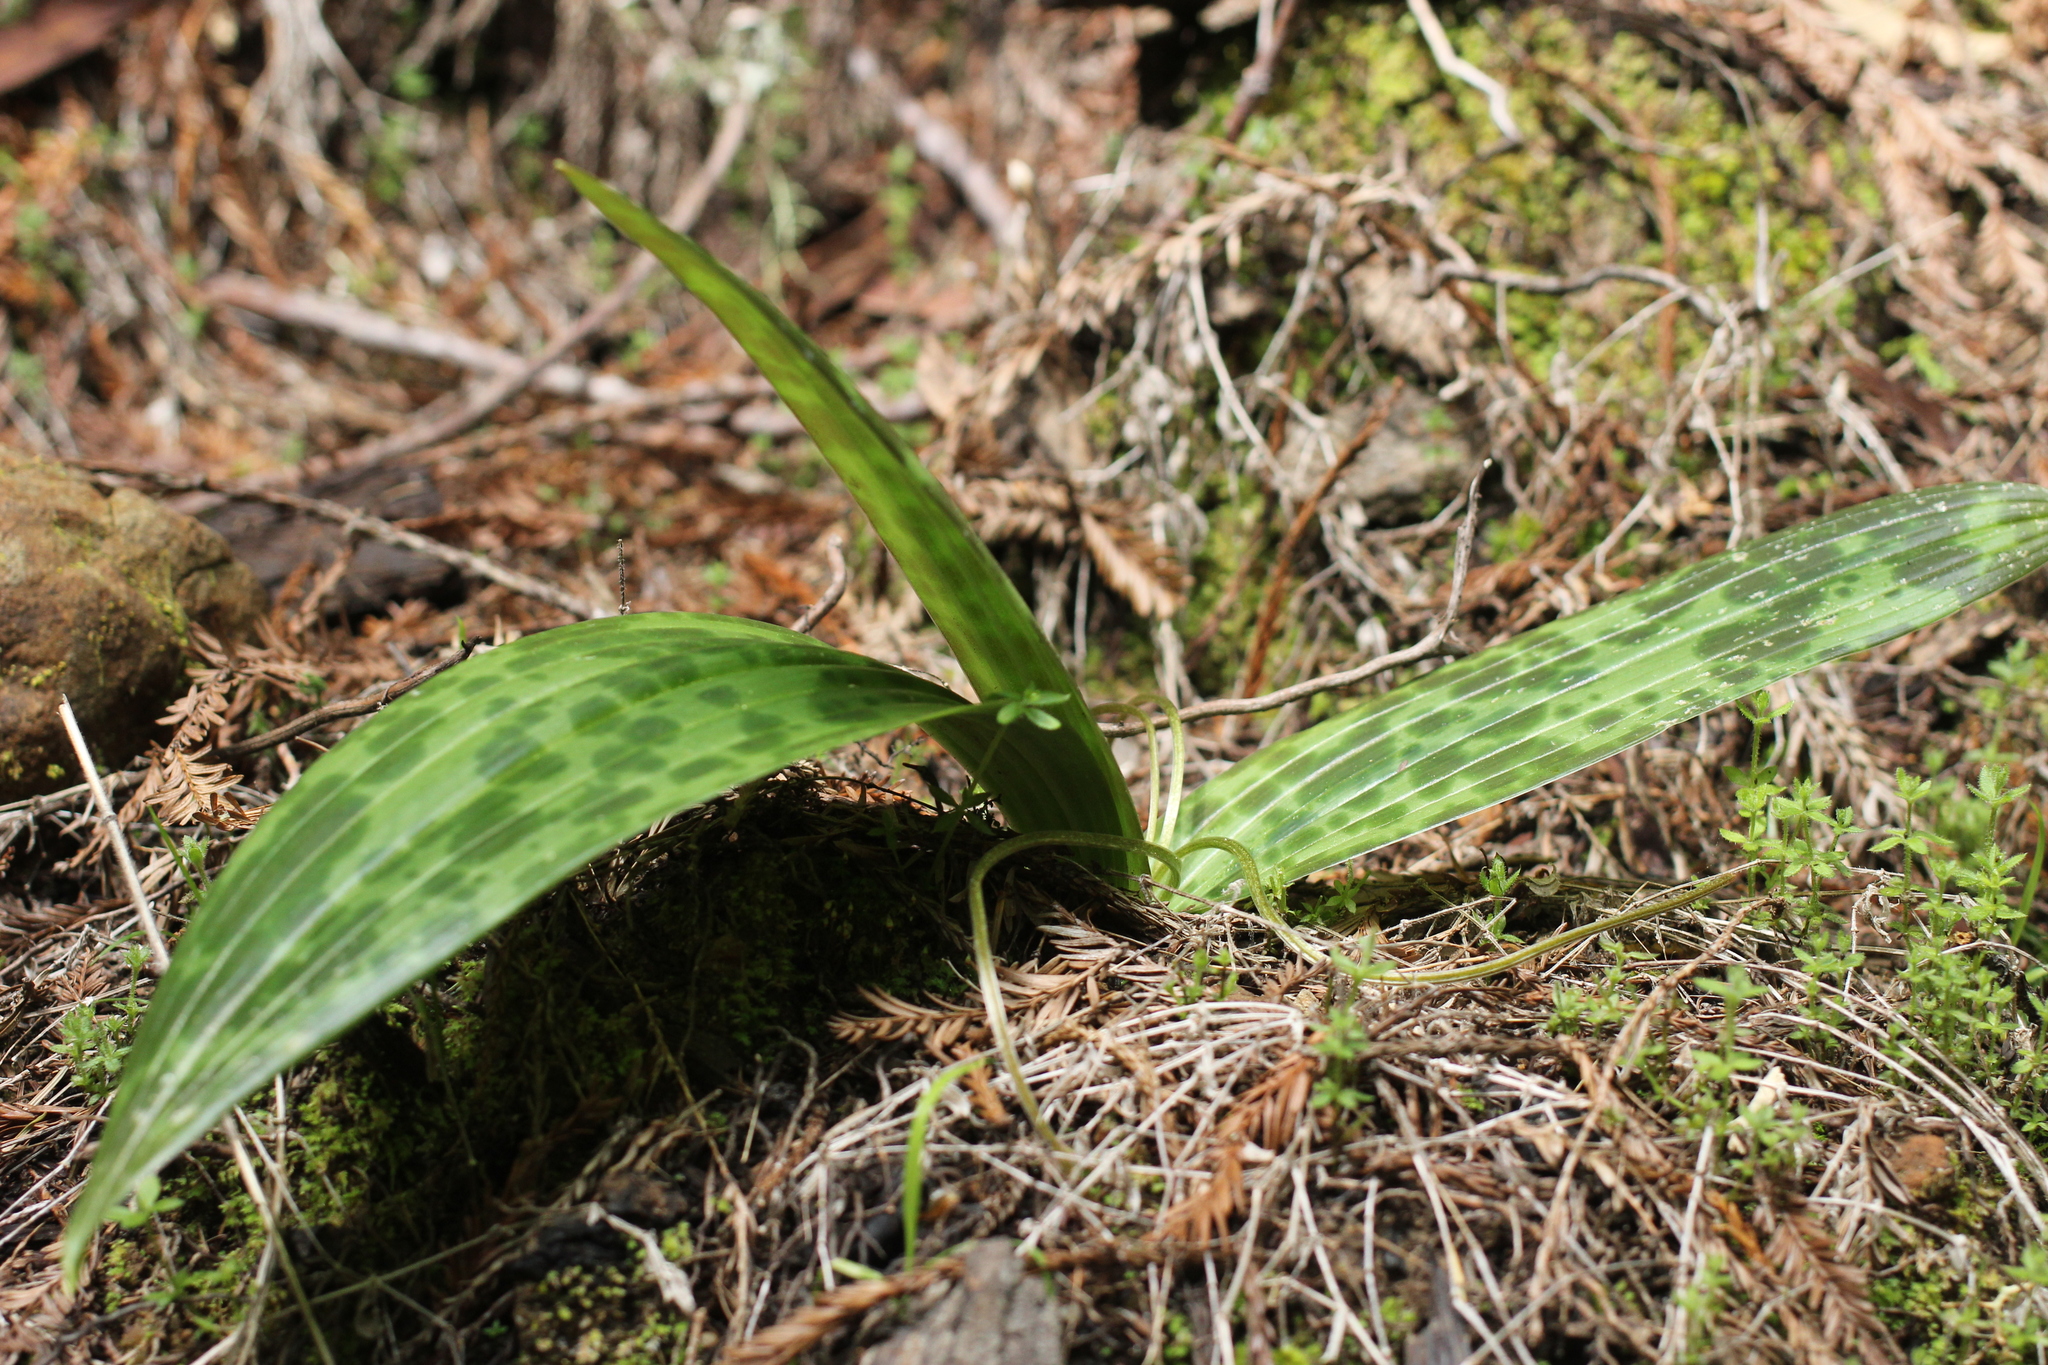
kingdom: Plantae
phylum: Tracheophyta
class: Liliopsida
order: Liliales
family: Liliaceae
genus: Scoliopus
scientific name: Scoliopus bigelovii
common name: Foetid adder's-tongue
